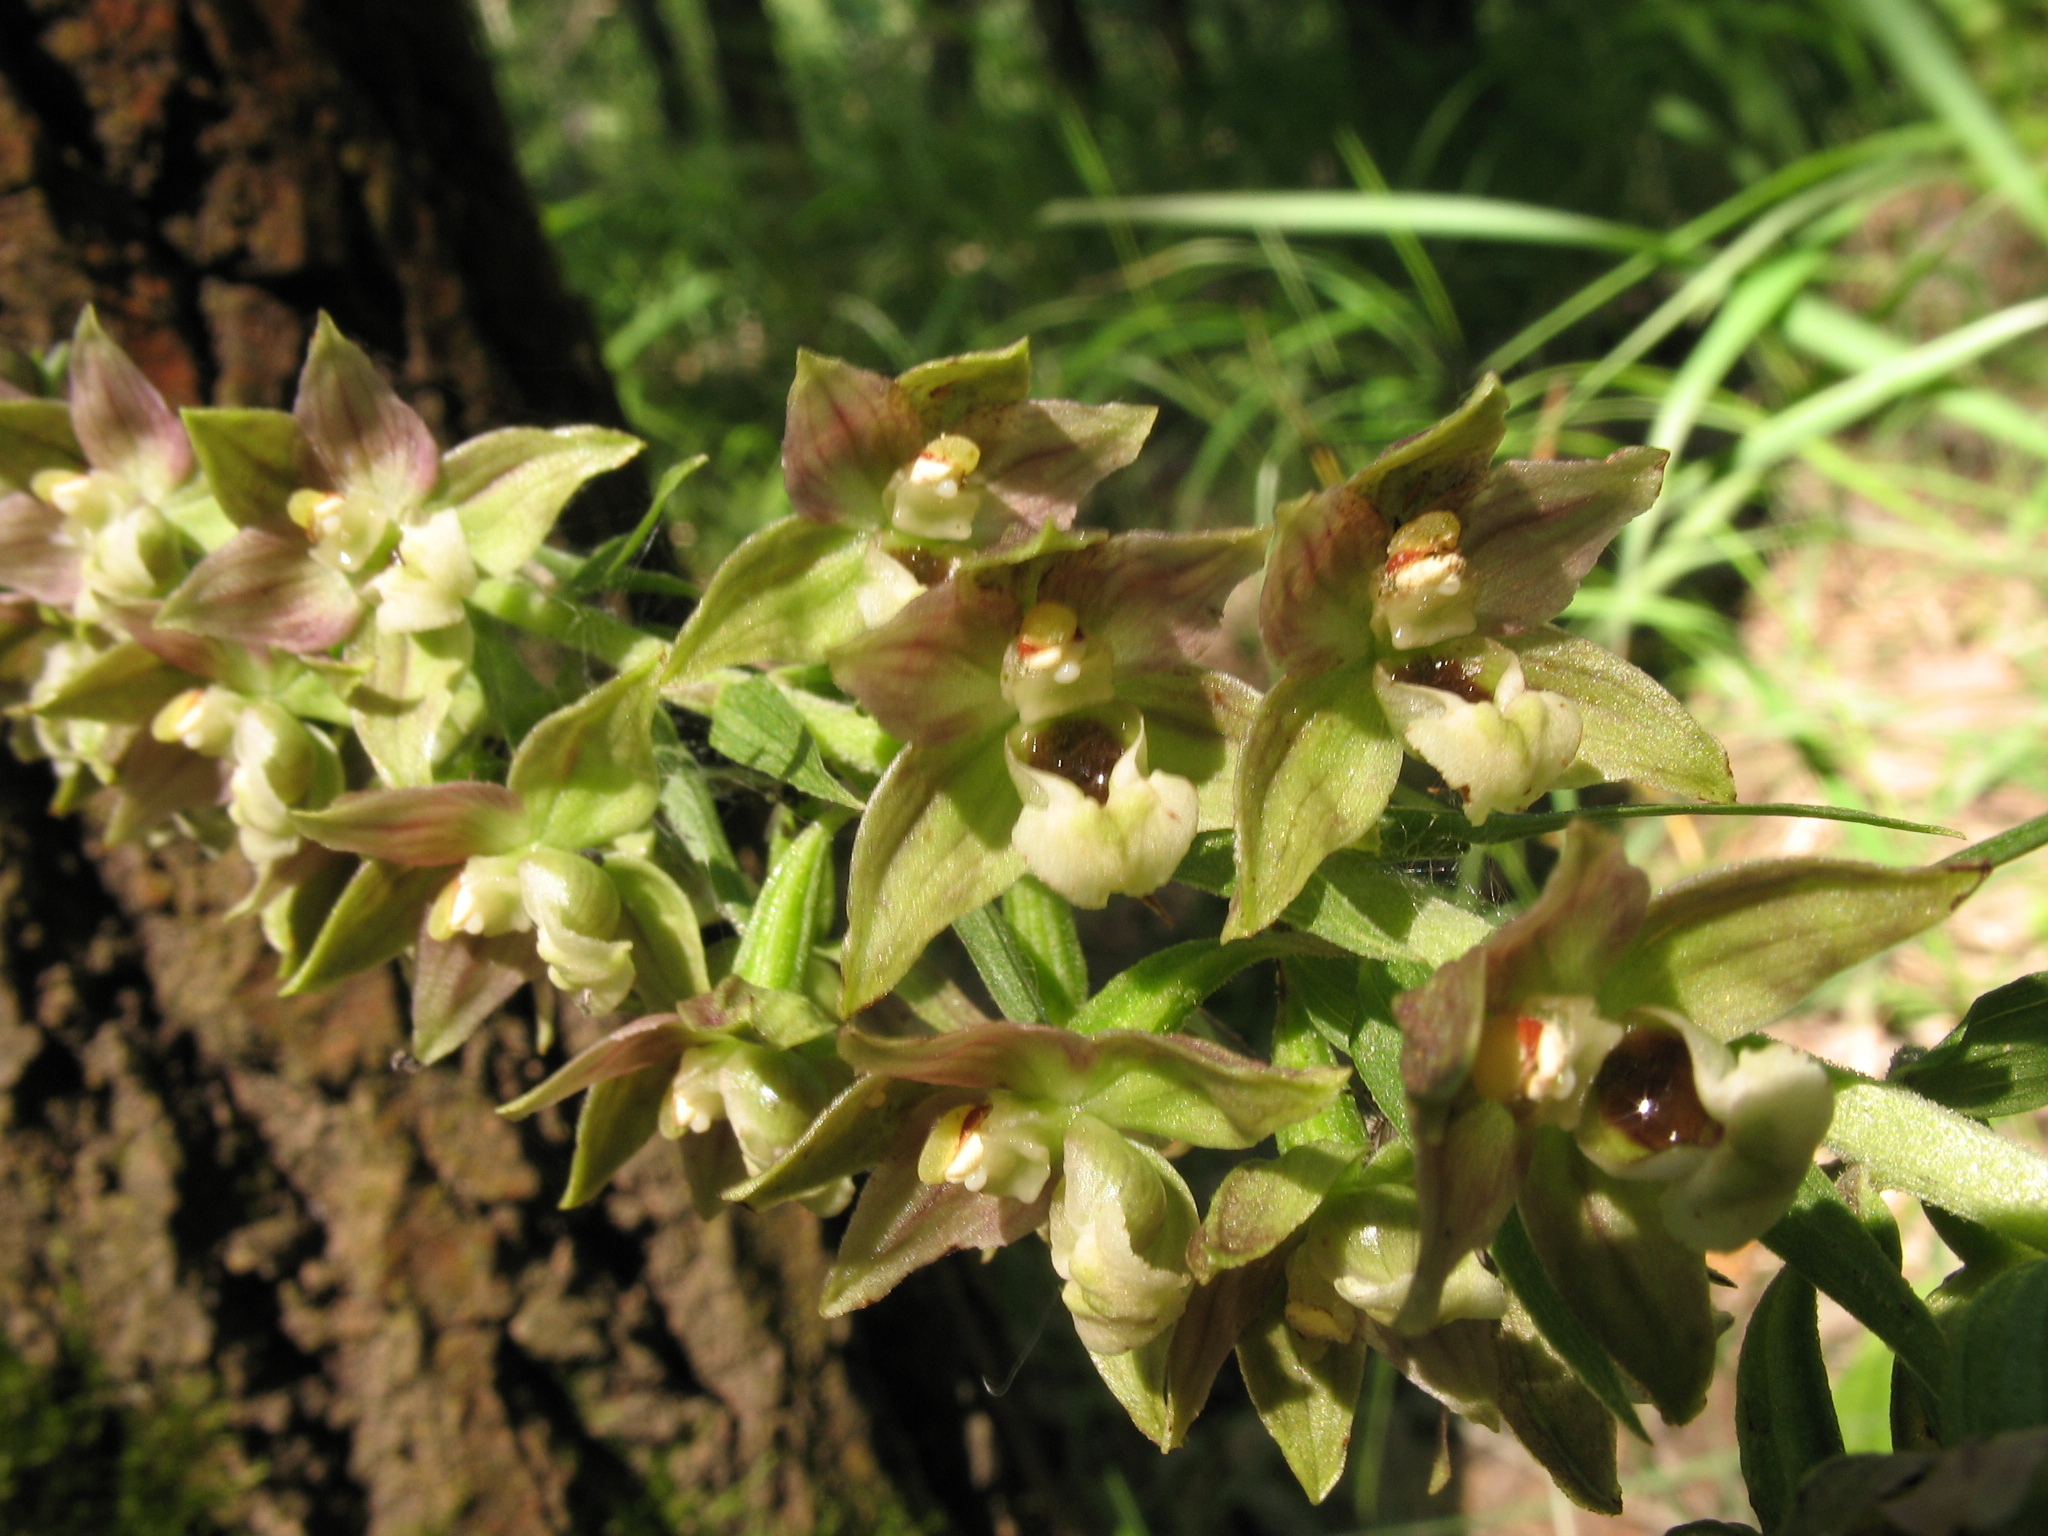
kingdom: Plantae
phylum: Tracheophyta
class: Liliopsida
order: Asparagales
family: Orchidaceae
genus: Epipactis
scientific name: Epipactis helleborine
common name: Broad-leaved helleborine
